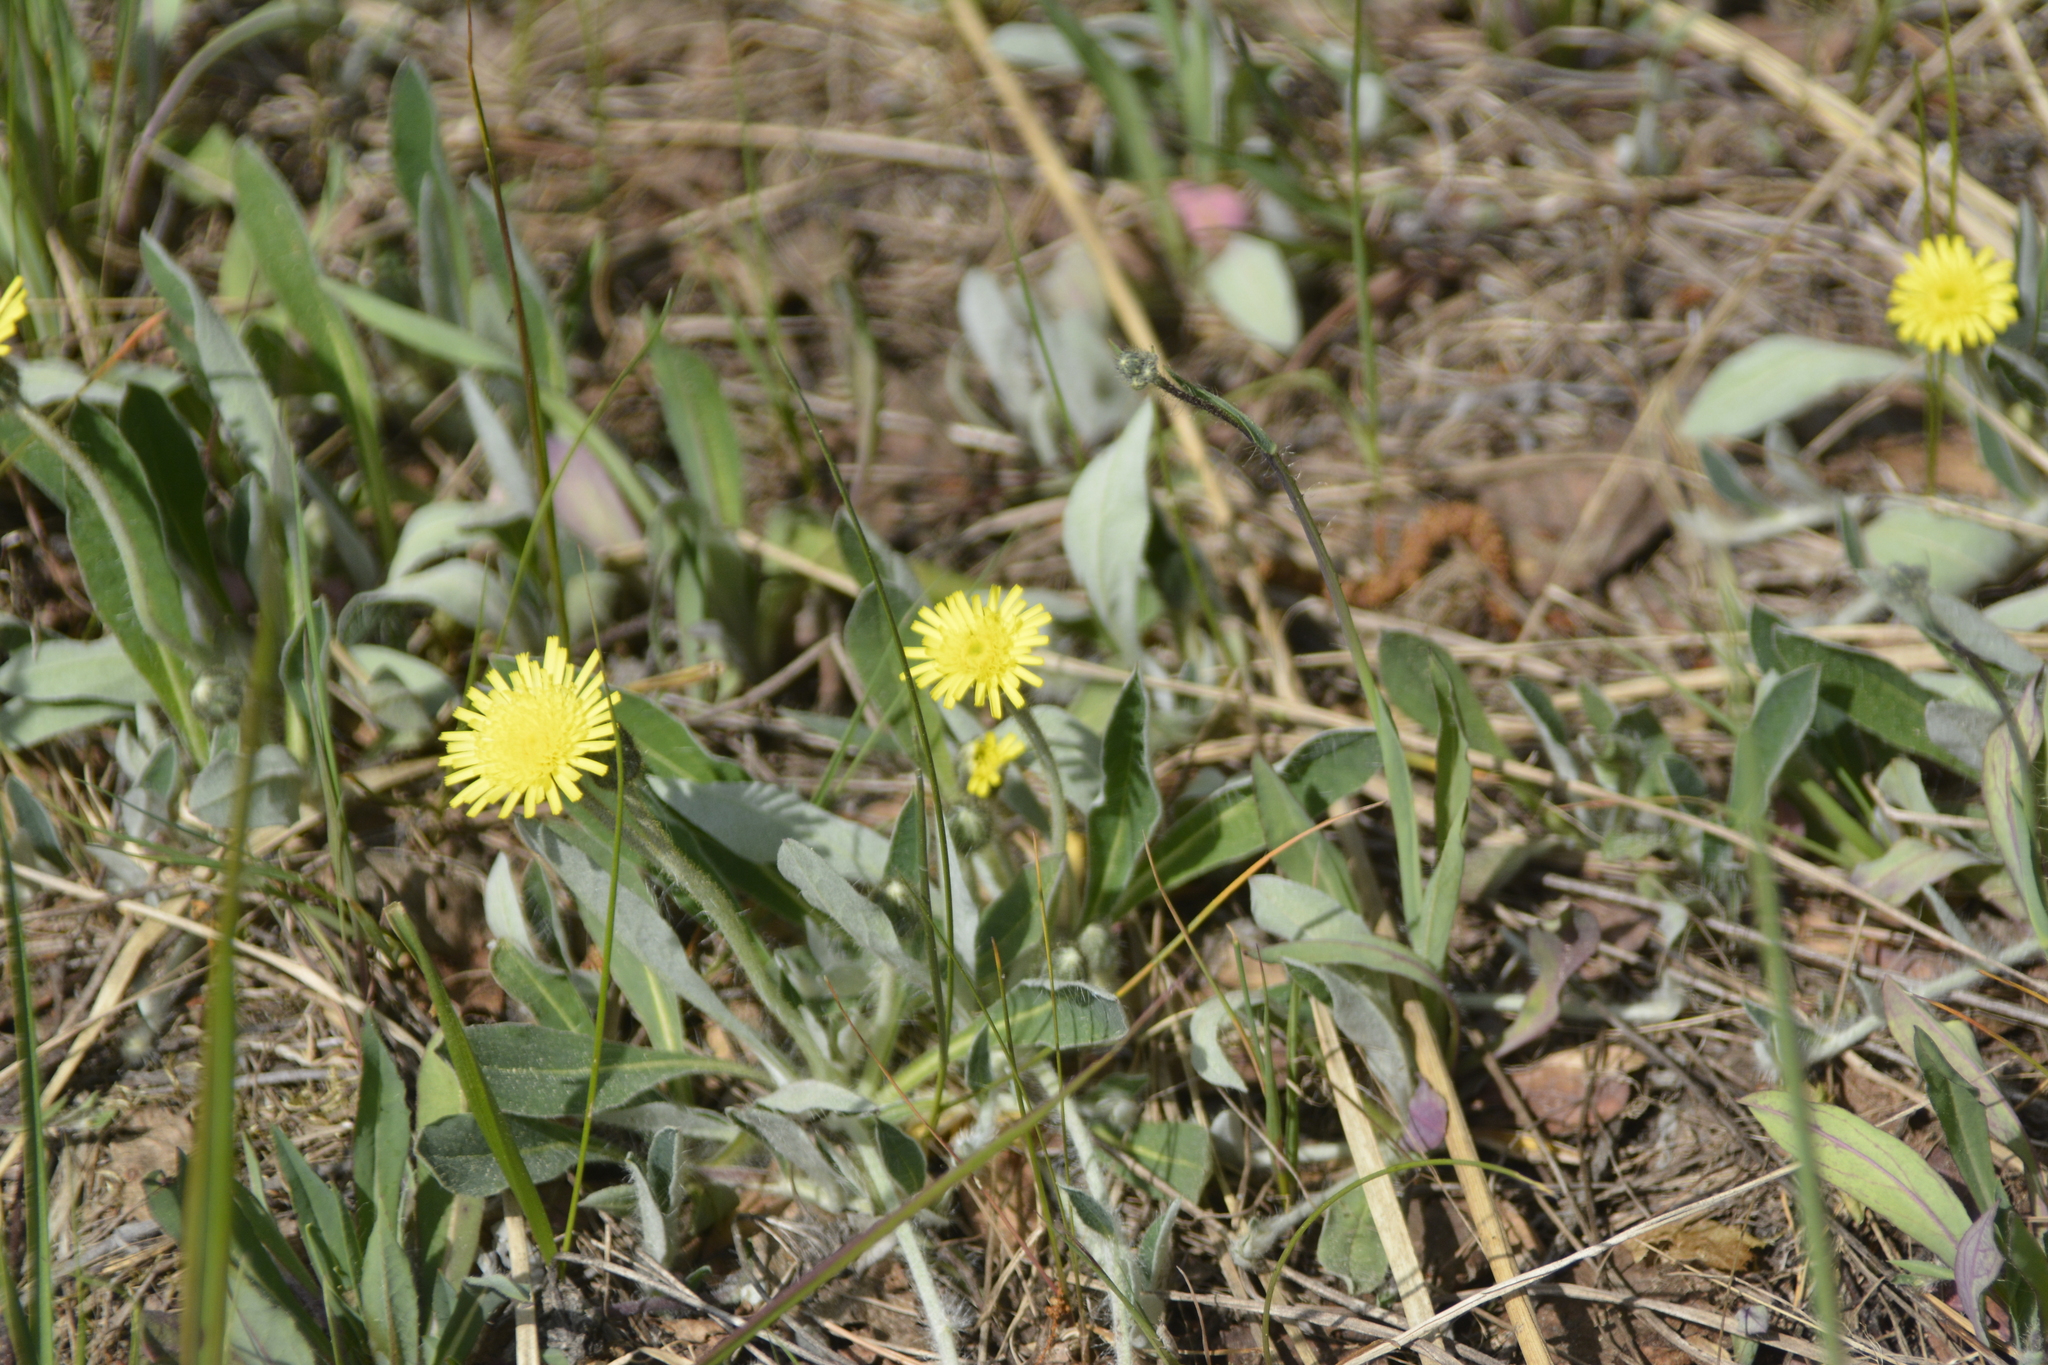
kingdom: Plantae
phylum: Tracheophyta
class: Magnoliopsida
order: Asterales
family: Asteraceae
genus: Pilosella
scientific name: Pilosella officinarum
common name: Mouse-ear hawkweed
